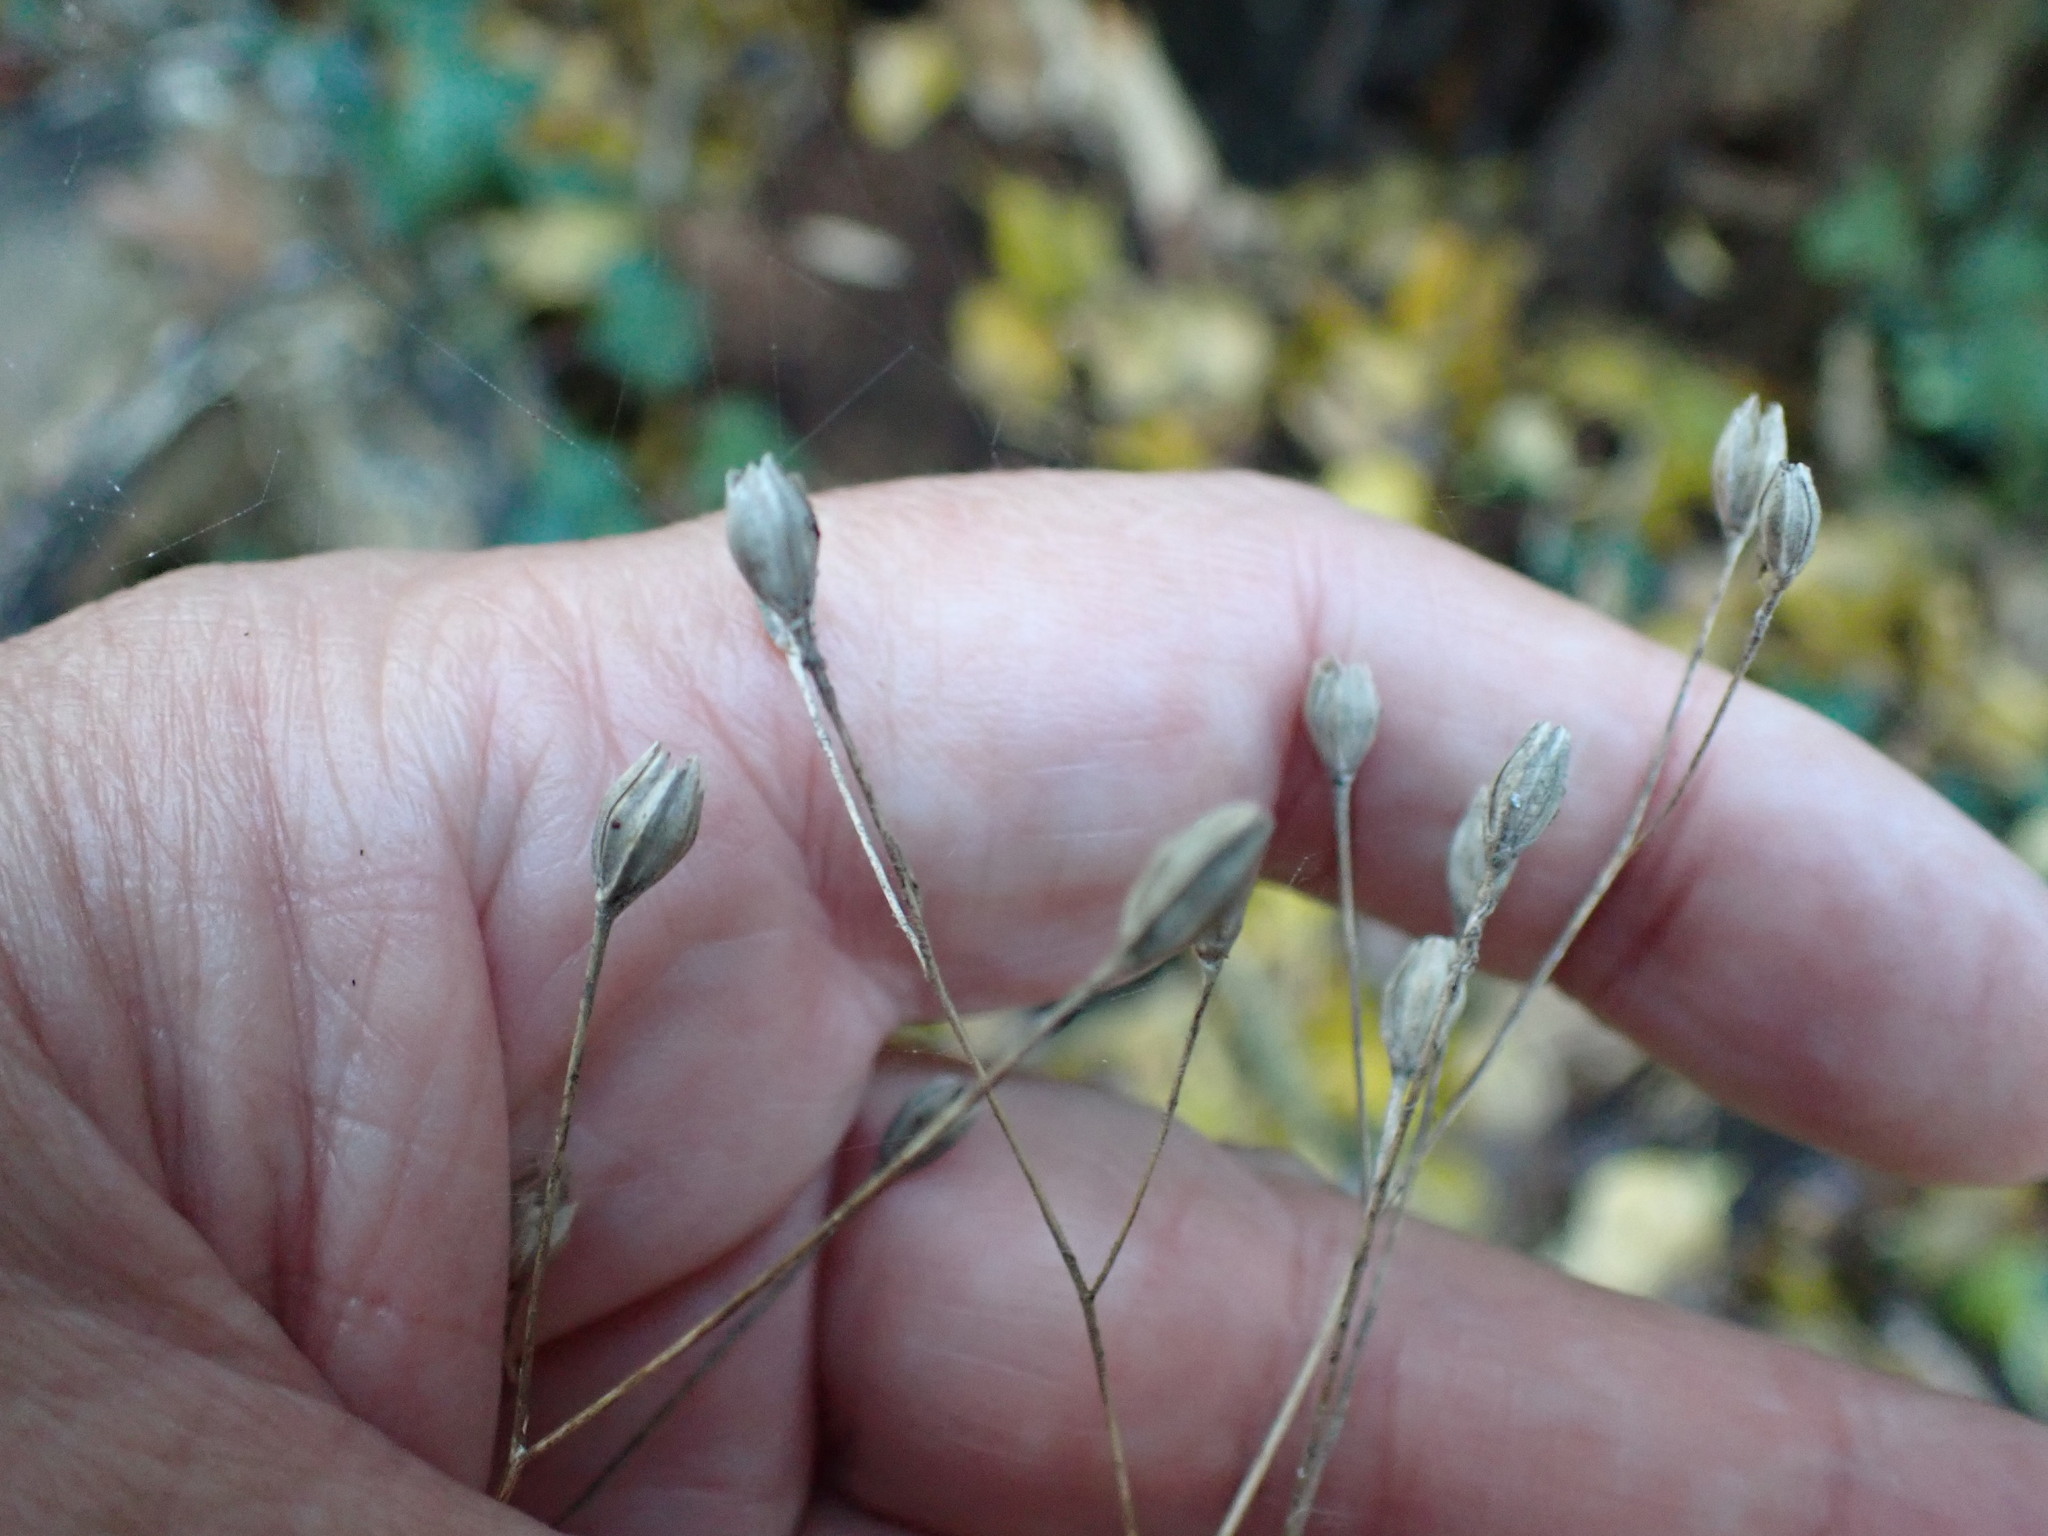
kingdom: Plantae
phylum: Tracheophyta
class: Magnoliopsida
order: Asterales
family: Asteraceae
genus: Lapsana
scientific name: Lapsana communis
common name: Nipplewort
